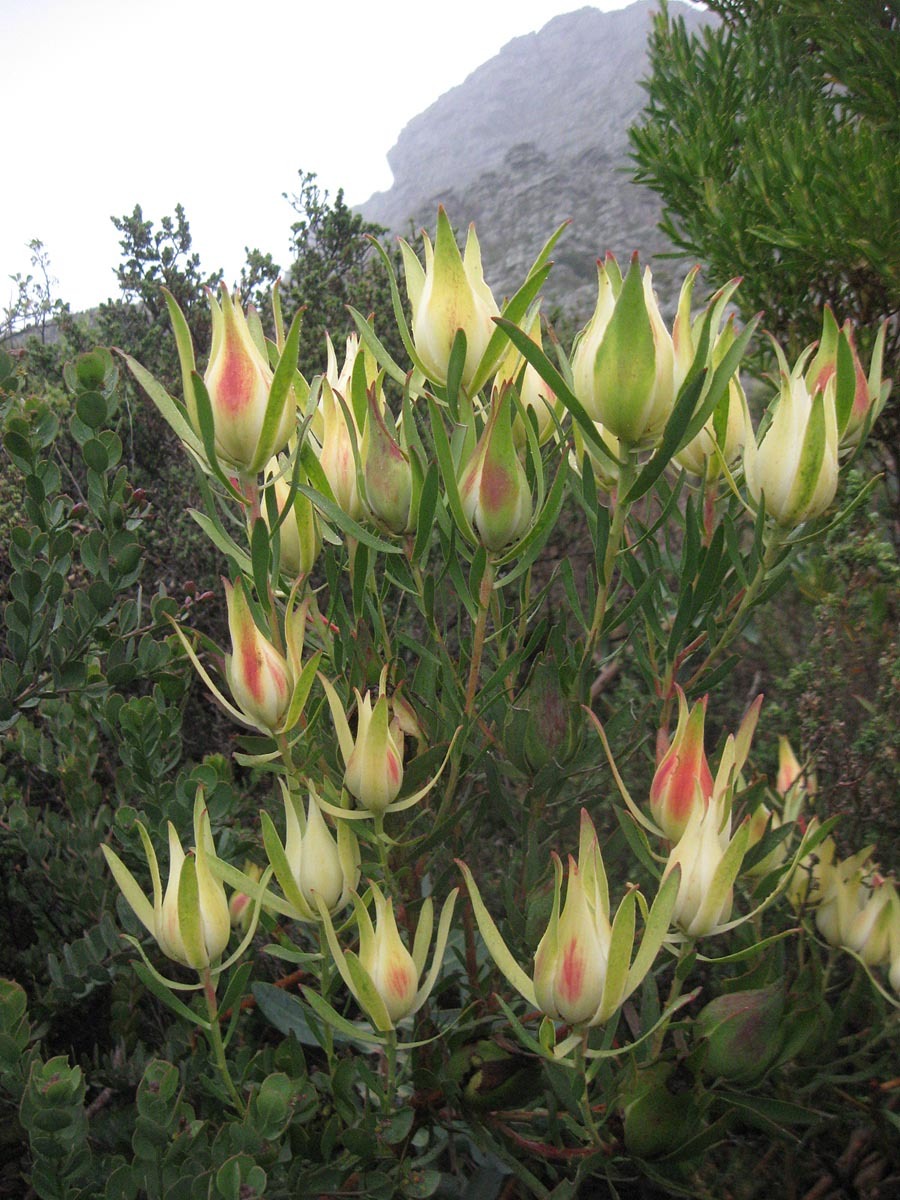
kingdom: Plantae
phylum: Tracheophyta
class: Magnoliopsida
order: Proteales
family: Proteaceae
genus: Leucadendron
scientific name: Leucadendron salignum
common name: Common sunshine conebush
